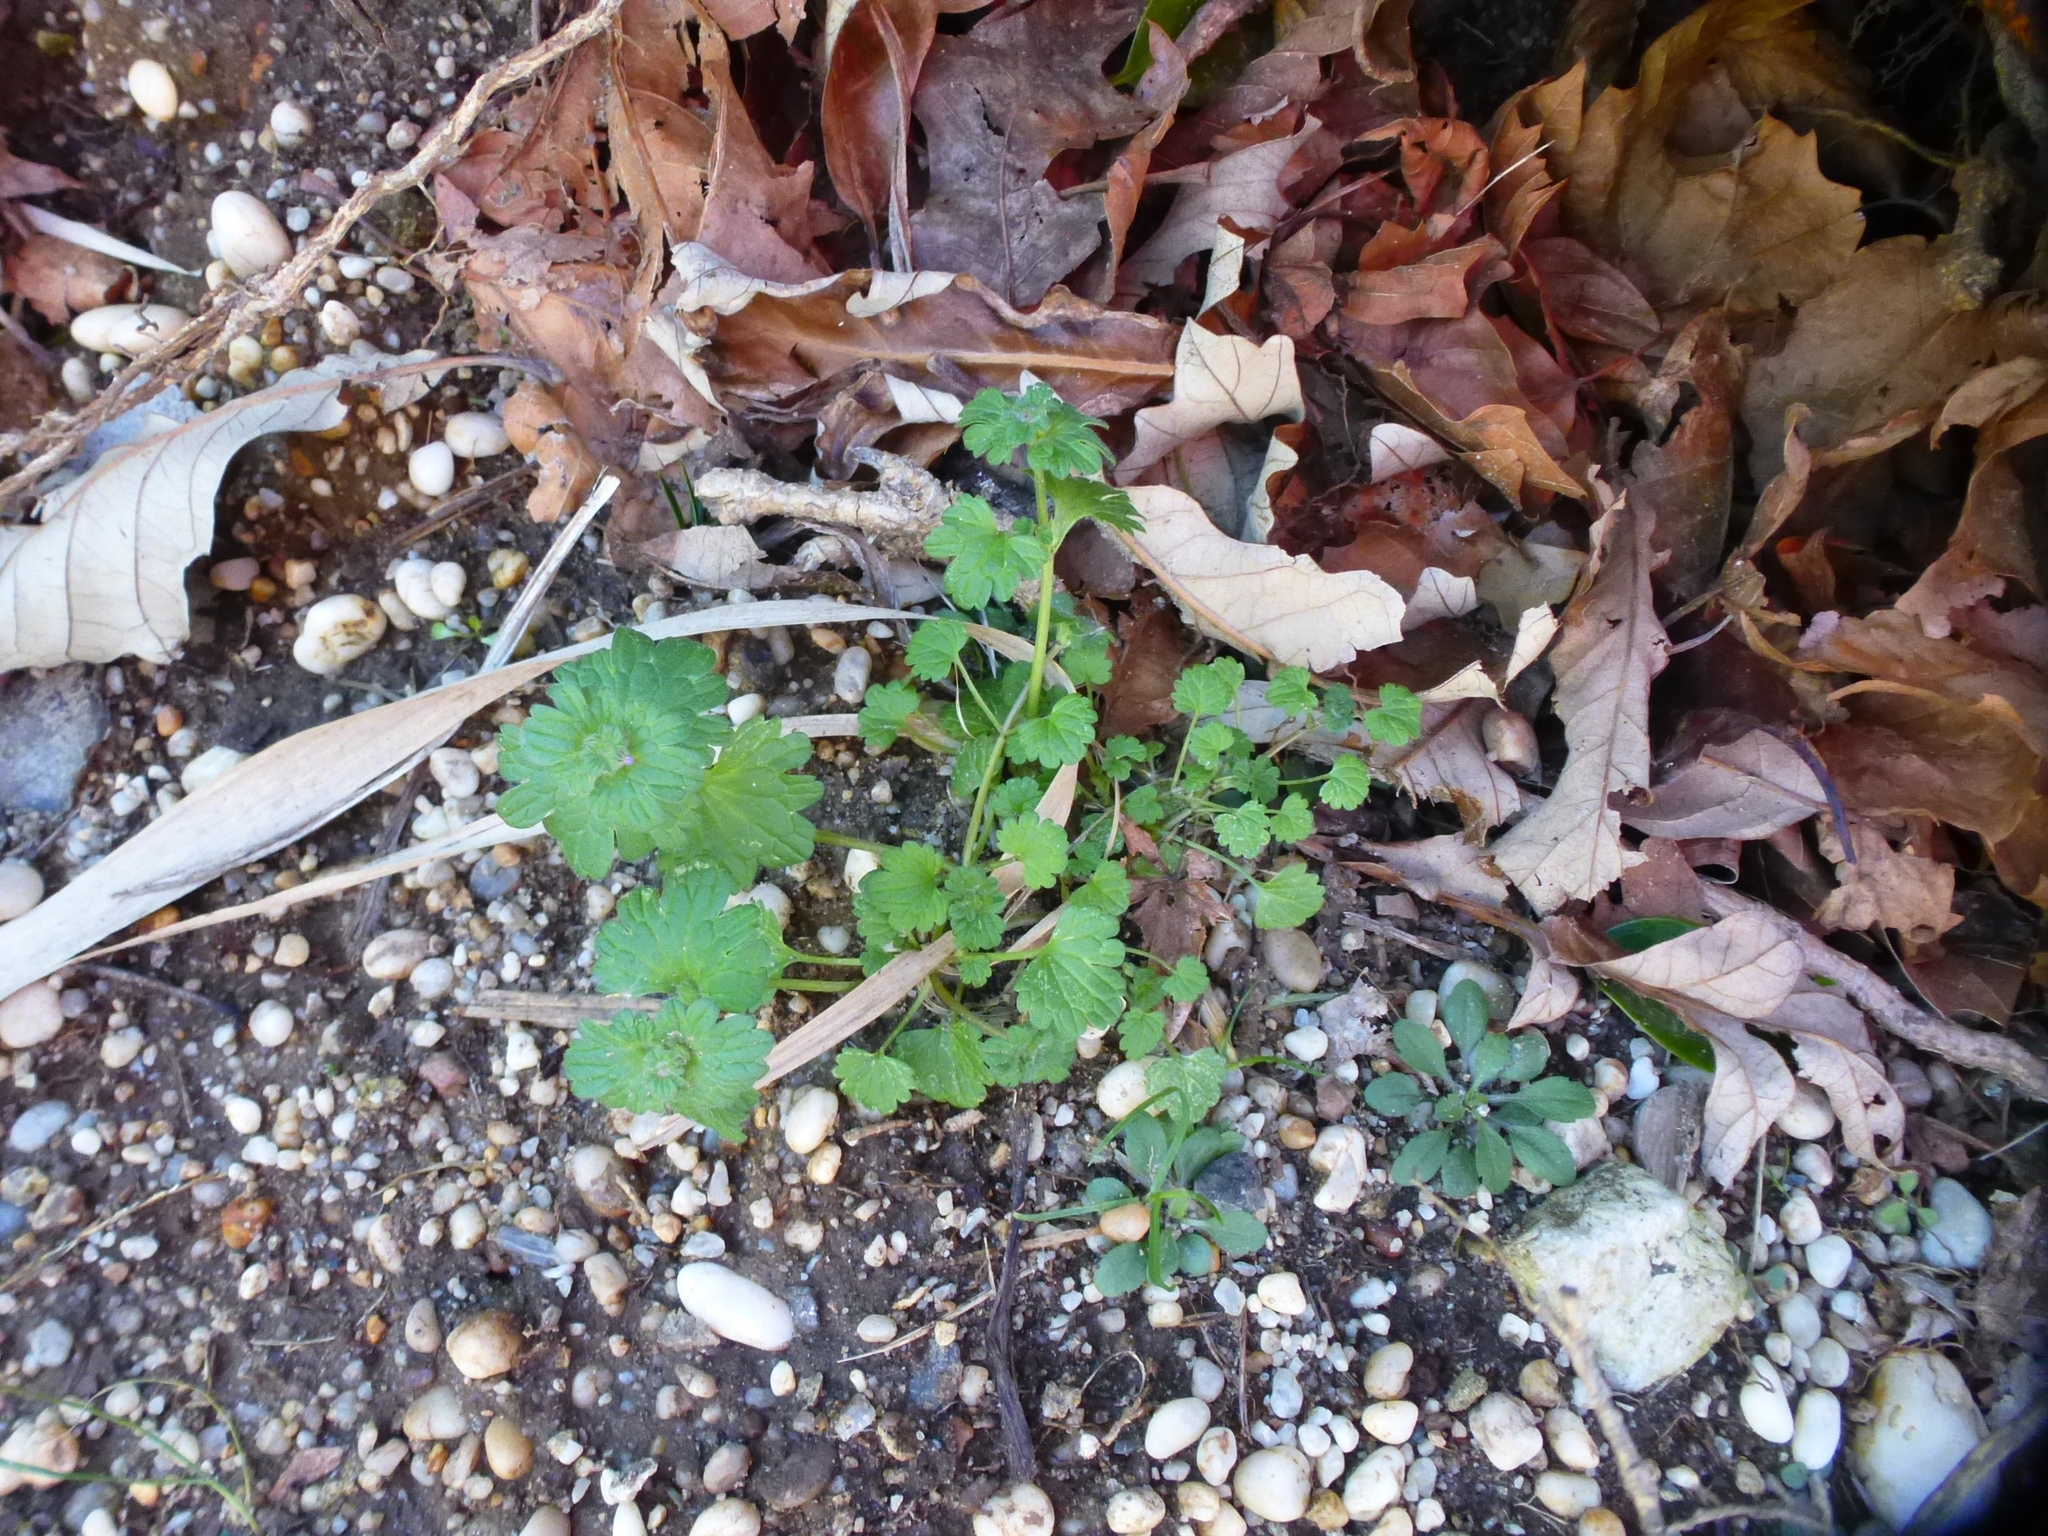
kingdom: Plantae
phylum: Tracheophyta
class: Magnoliopsida
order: Lamiales
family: Lamiaceae
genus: Lamium
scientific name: Lamium amplexicaule
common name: Henbit dead-nettle
